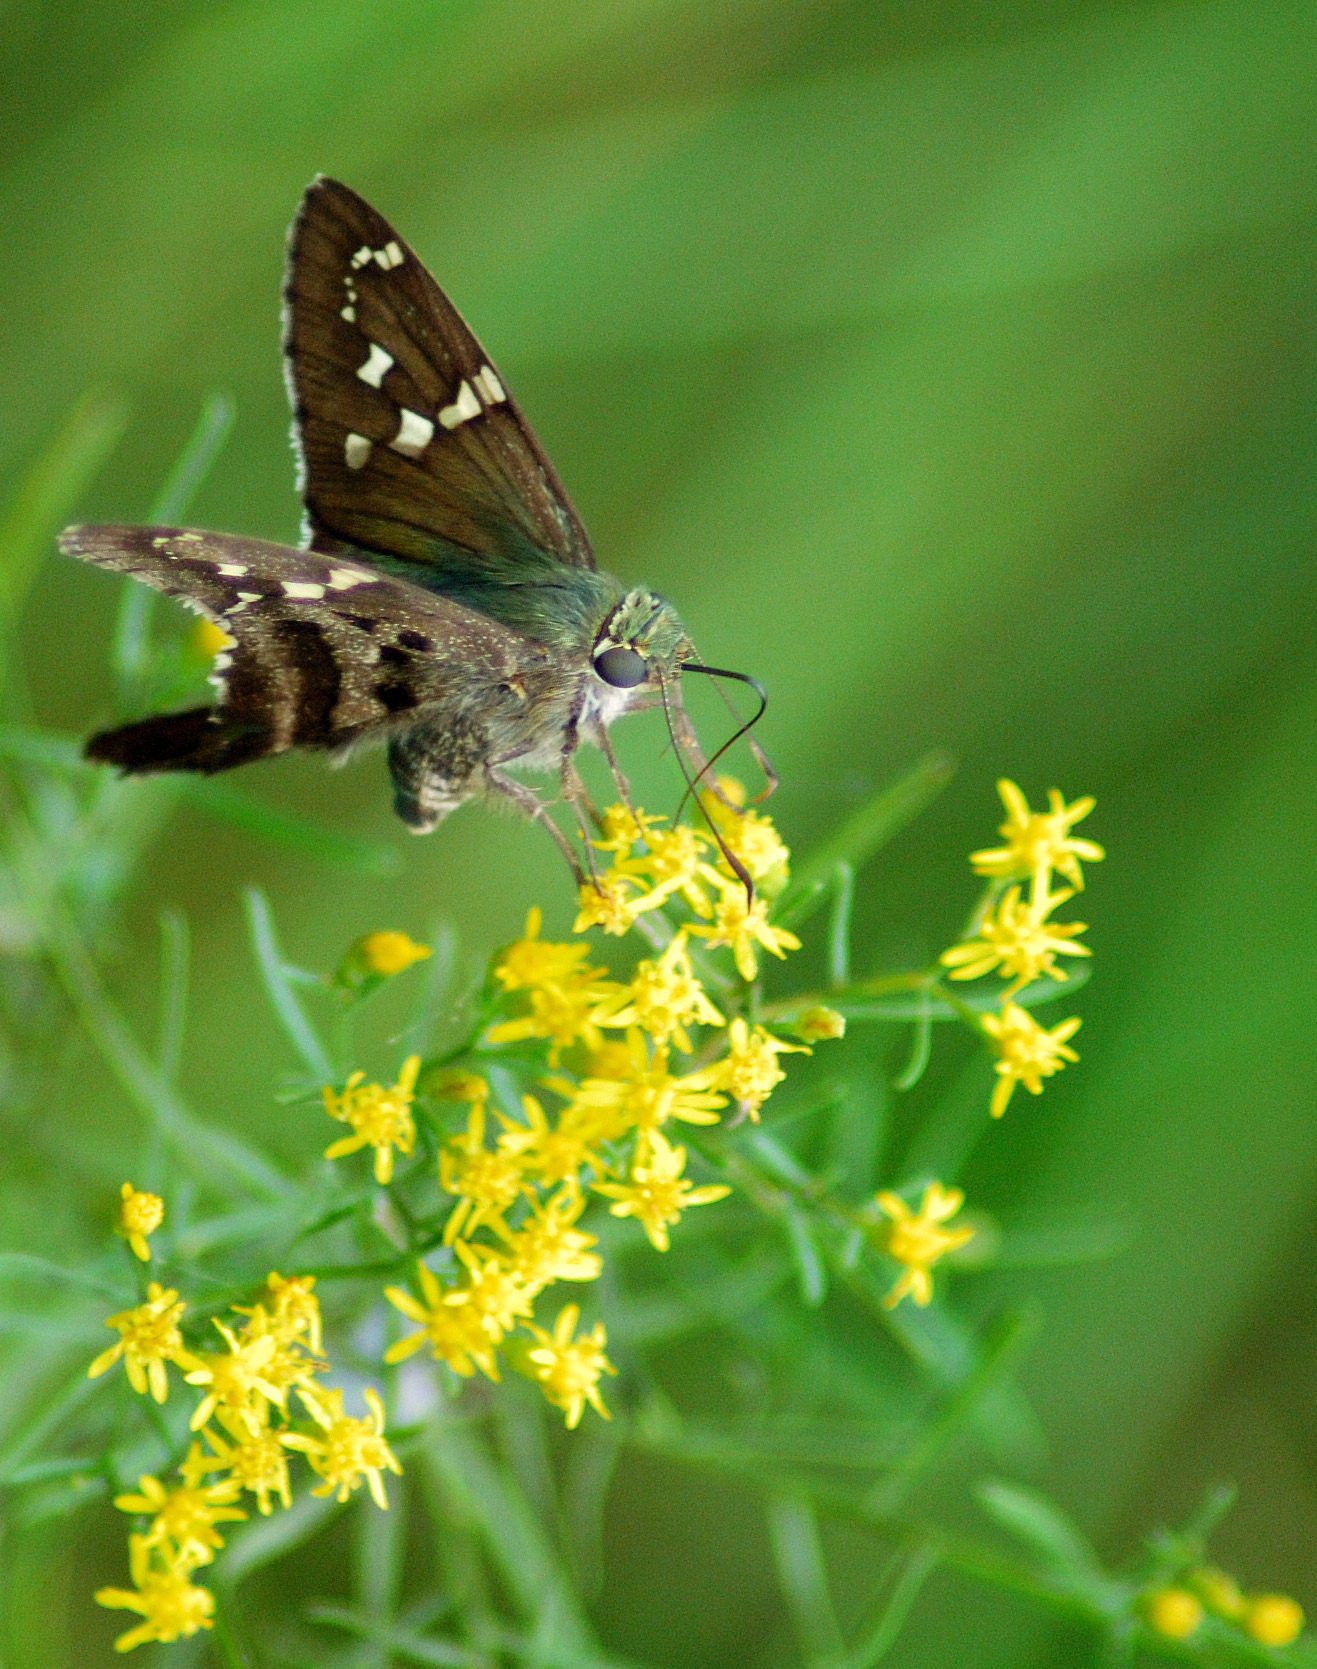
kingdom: Animalia
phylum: Arthropoda
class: Insecta
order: Lepidoptera
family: Hesperiidae
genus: Urbanus
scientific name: Urbanus proteus
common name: Long-tailed skipper
